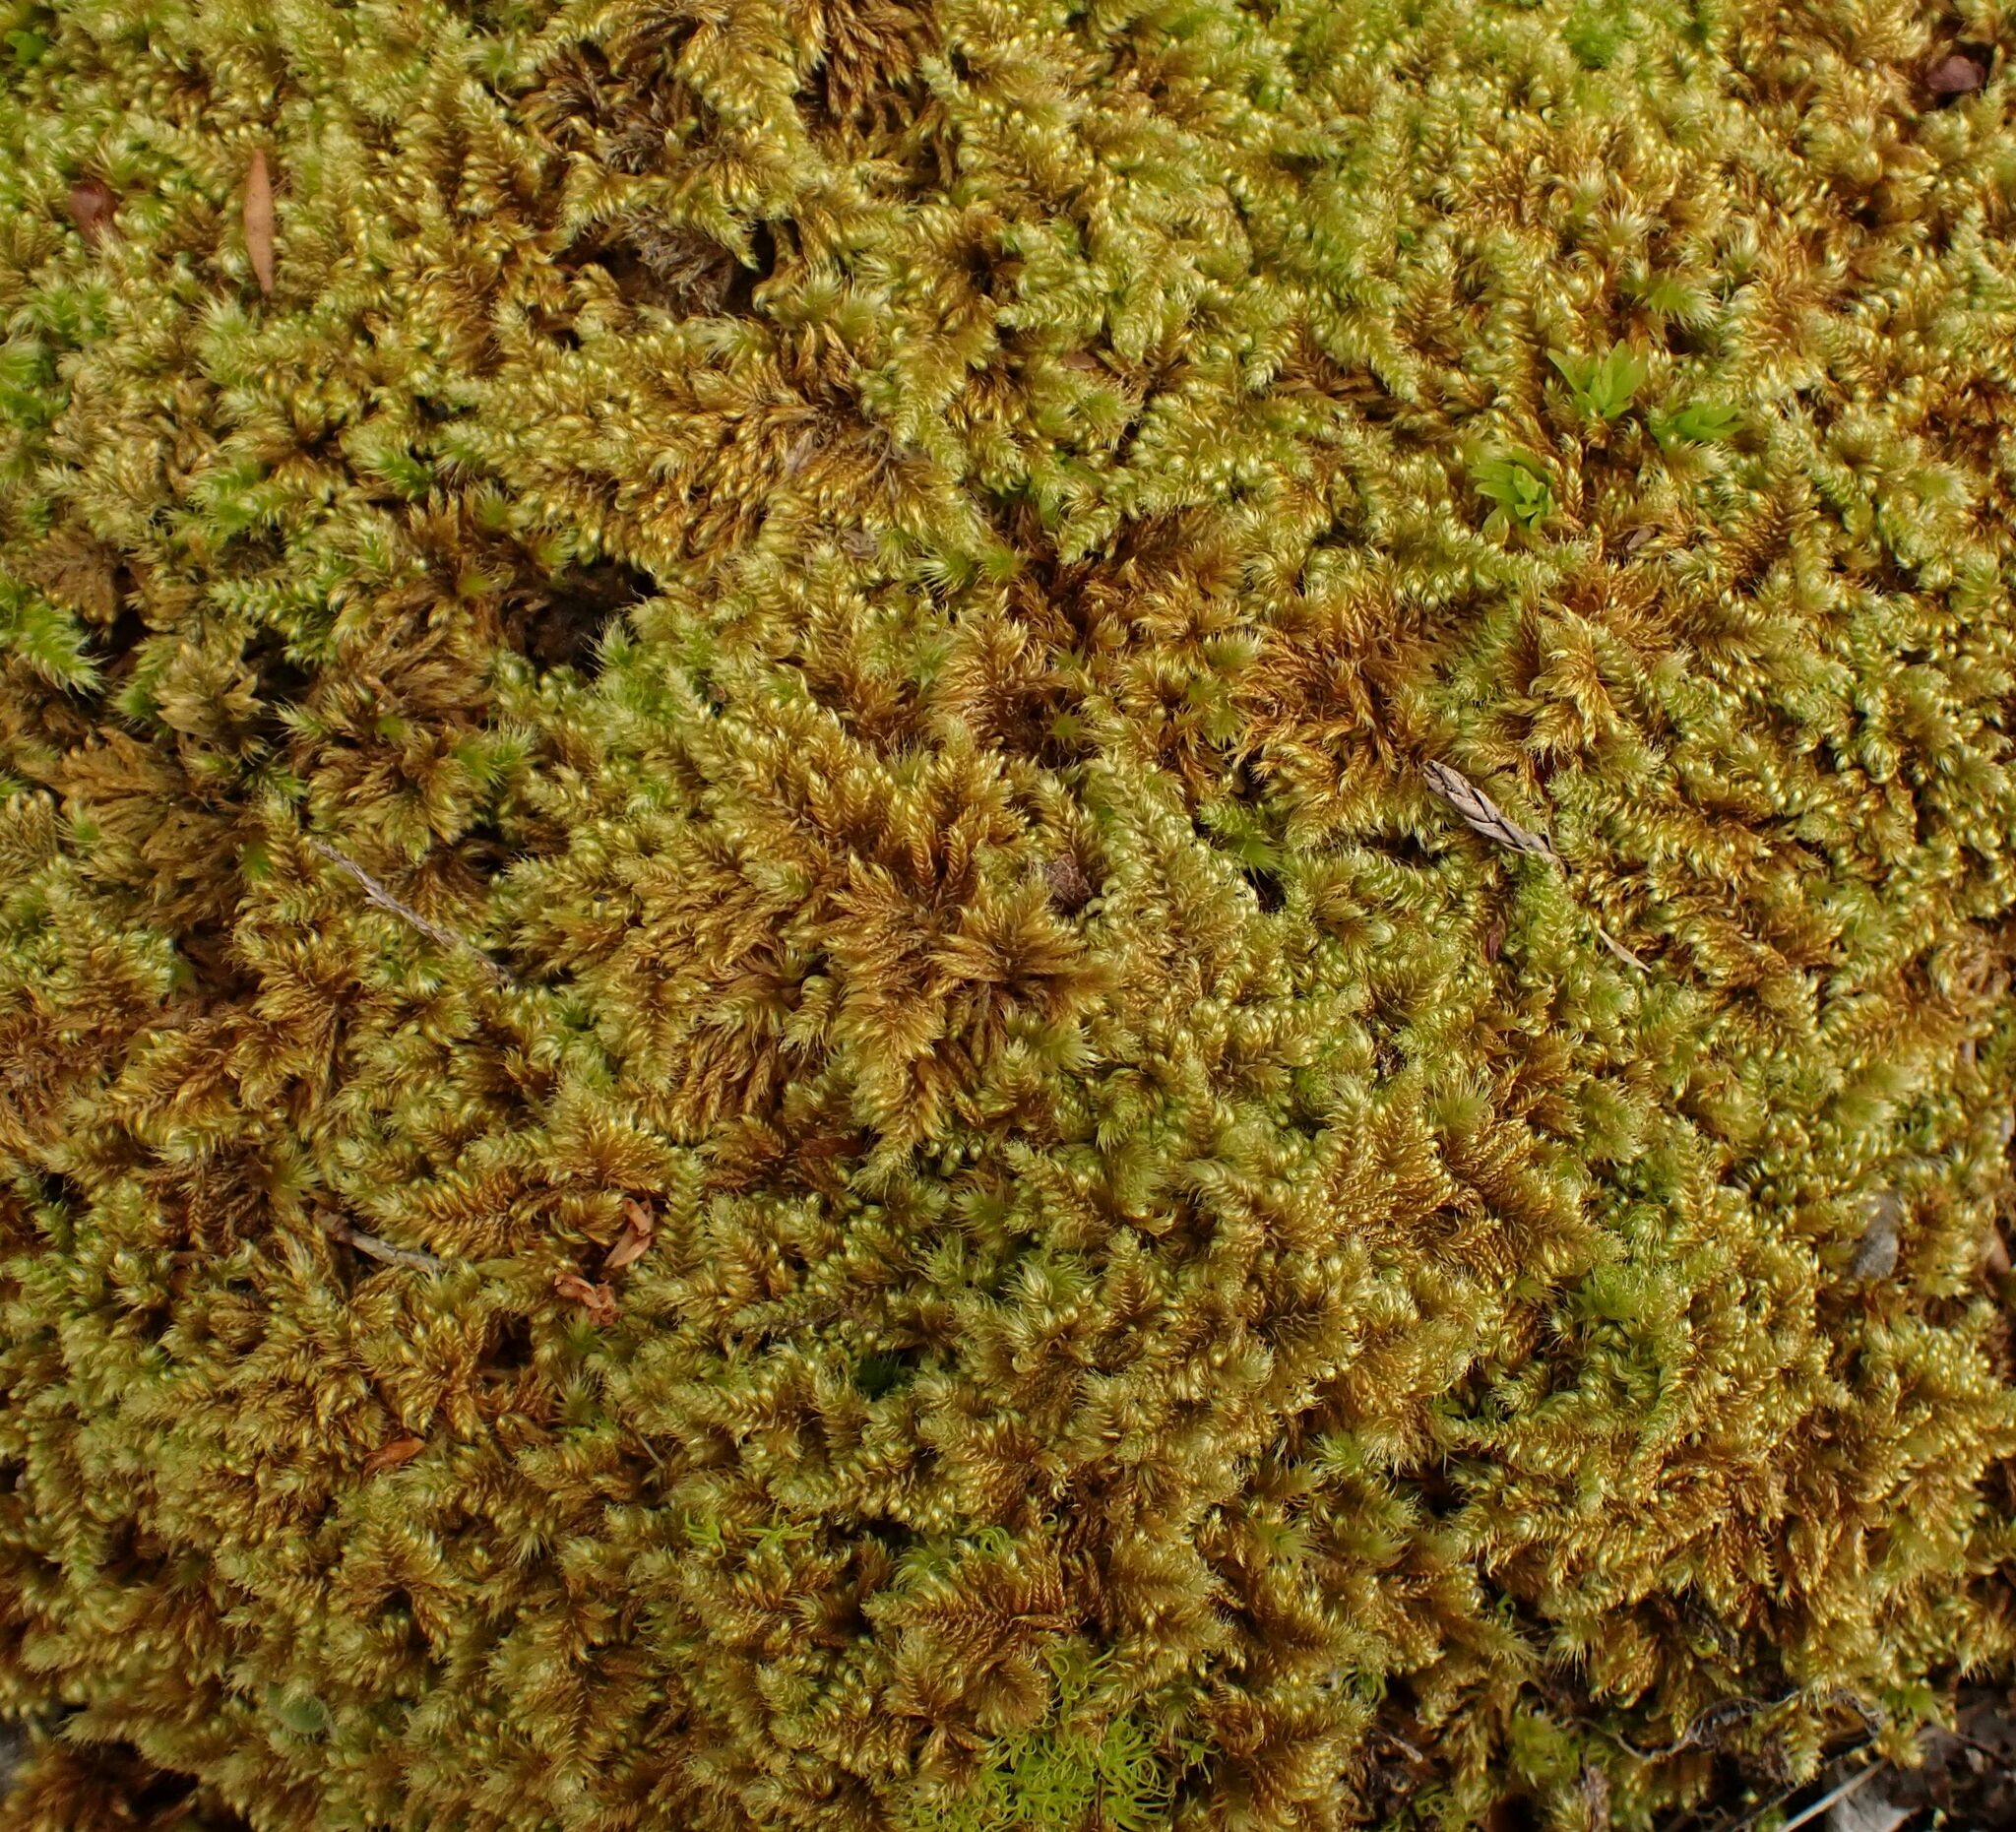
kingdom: Plantae
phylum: Bryophyta
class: Bryopsida
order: Hypnales
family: Myuriaceae
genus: Ctenidium
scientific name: Ctenidium molluscum
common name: Chalk comb-moss
